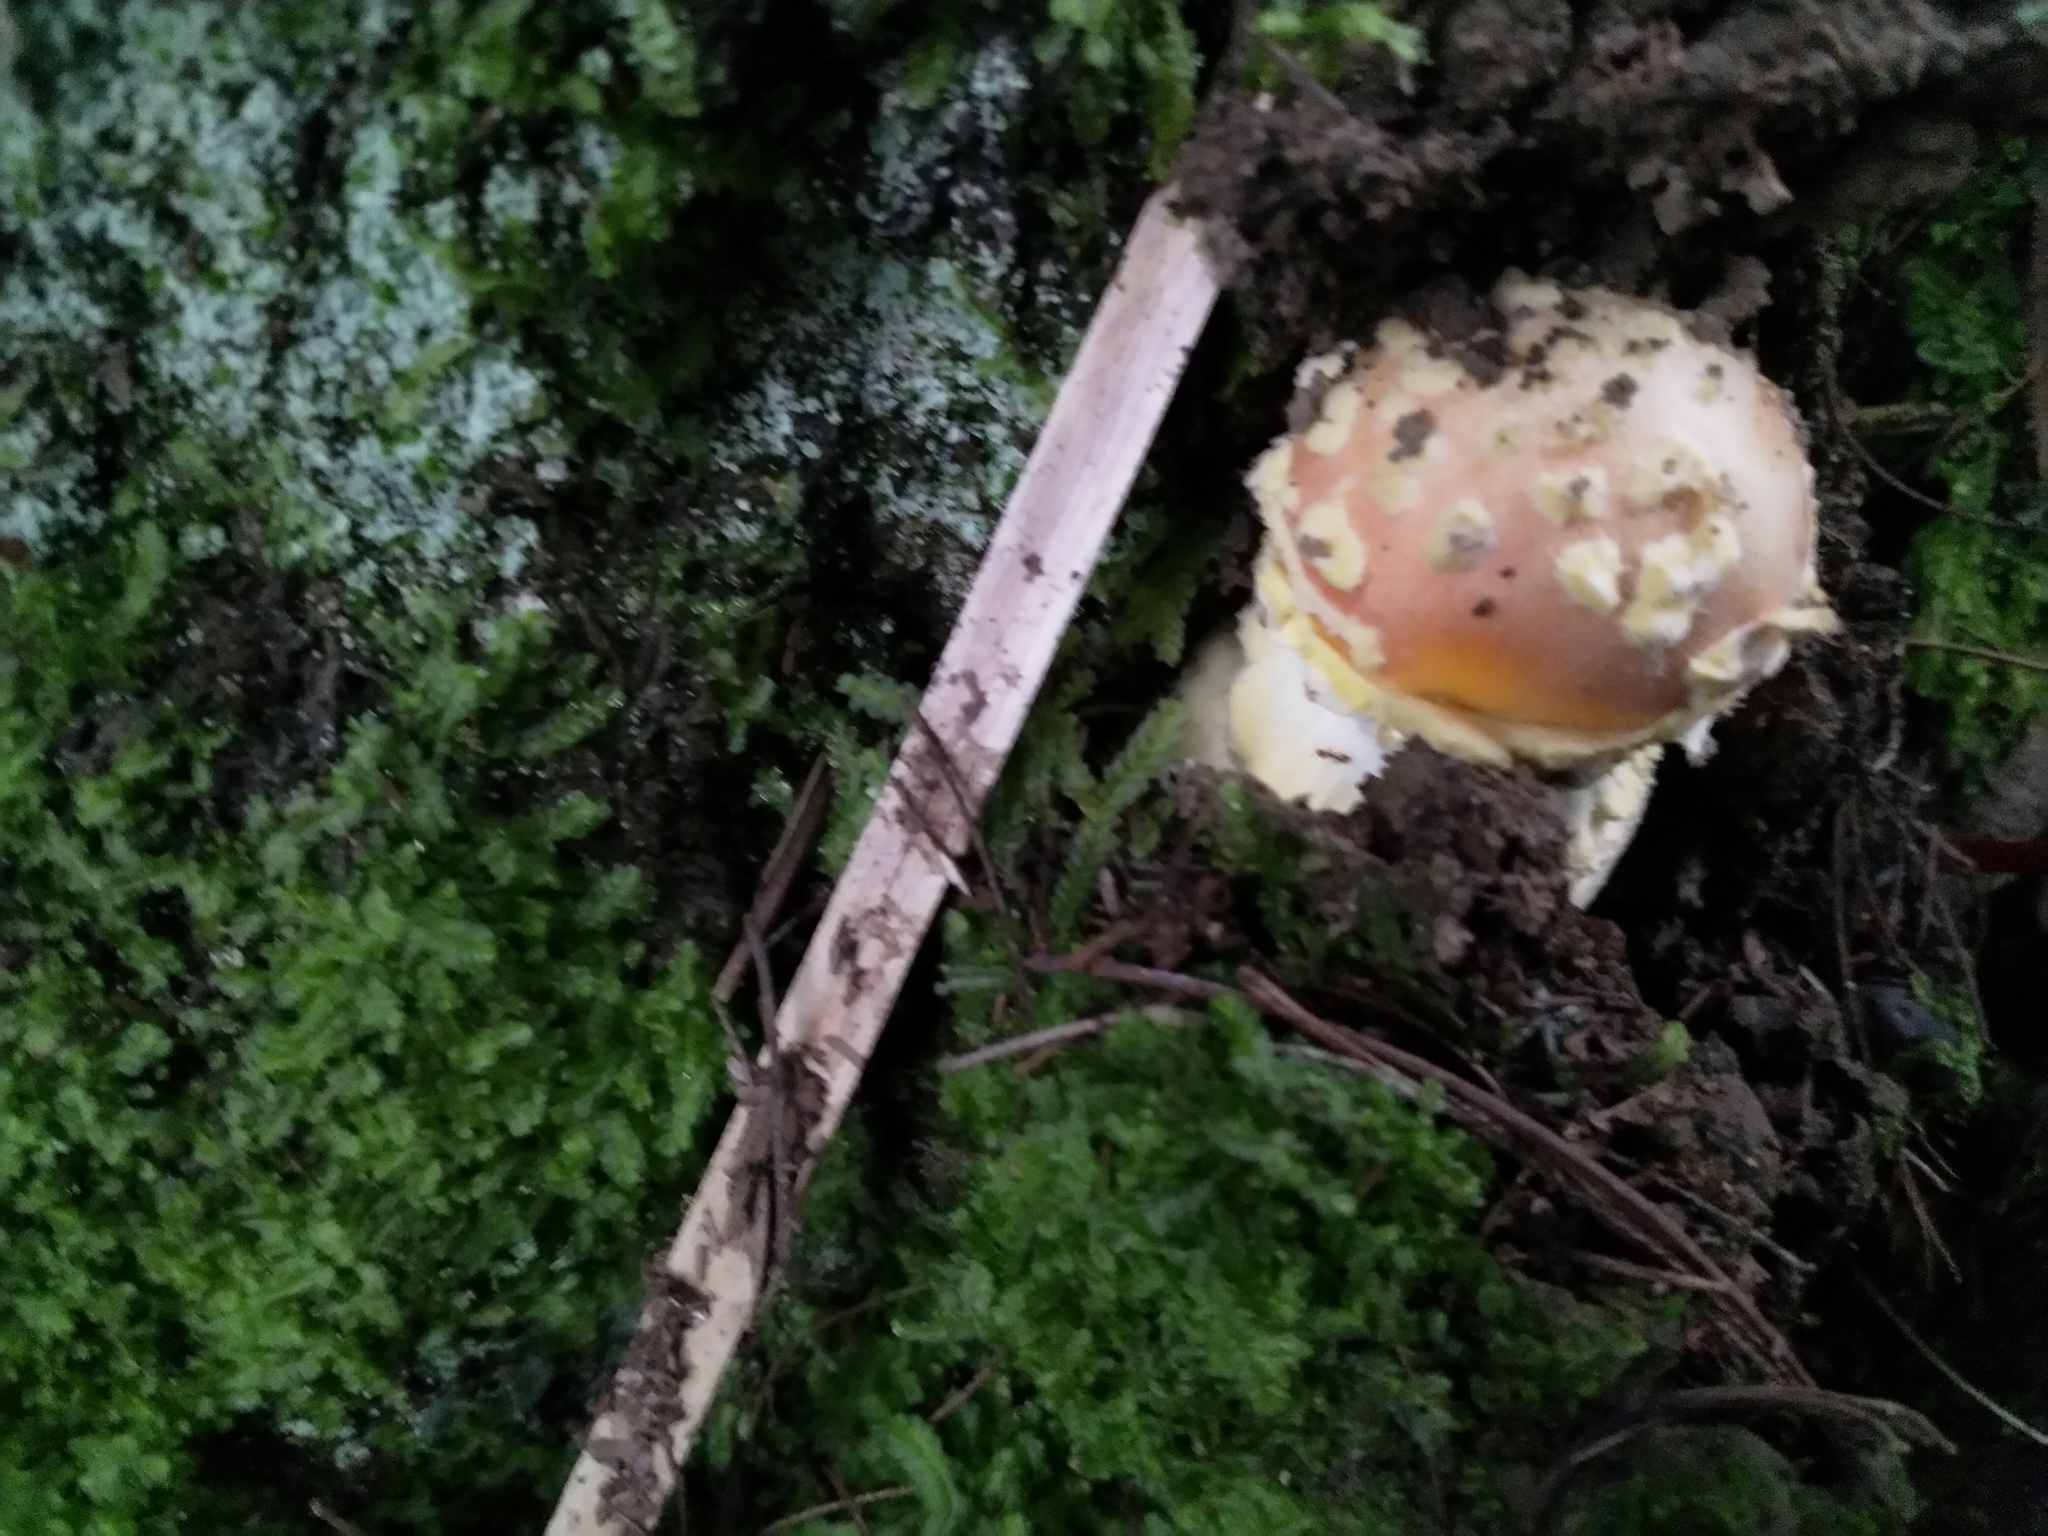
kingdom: Fungi
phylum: Basidiomycota
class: Agaricomycetes
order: Agaricales
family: Amanitaceae
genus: Amanita
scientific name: Amanita muscaria
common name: Fly agaric
